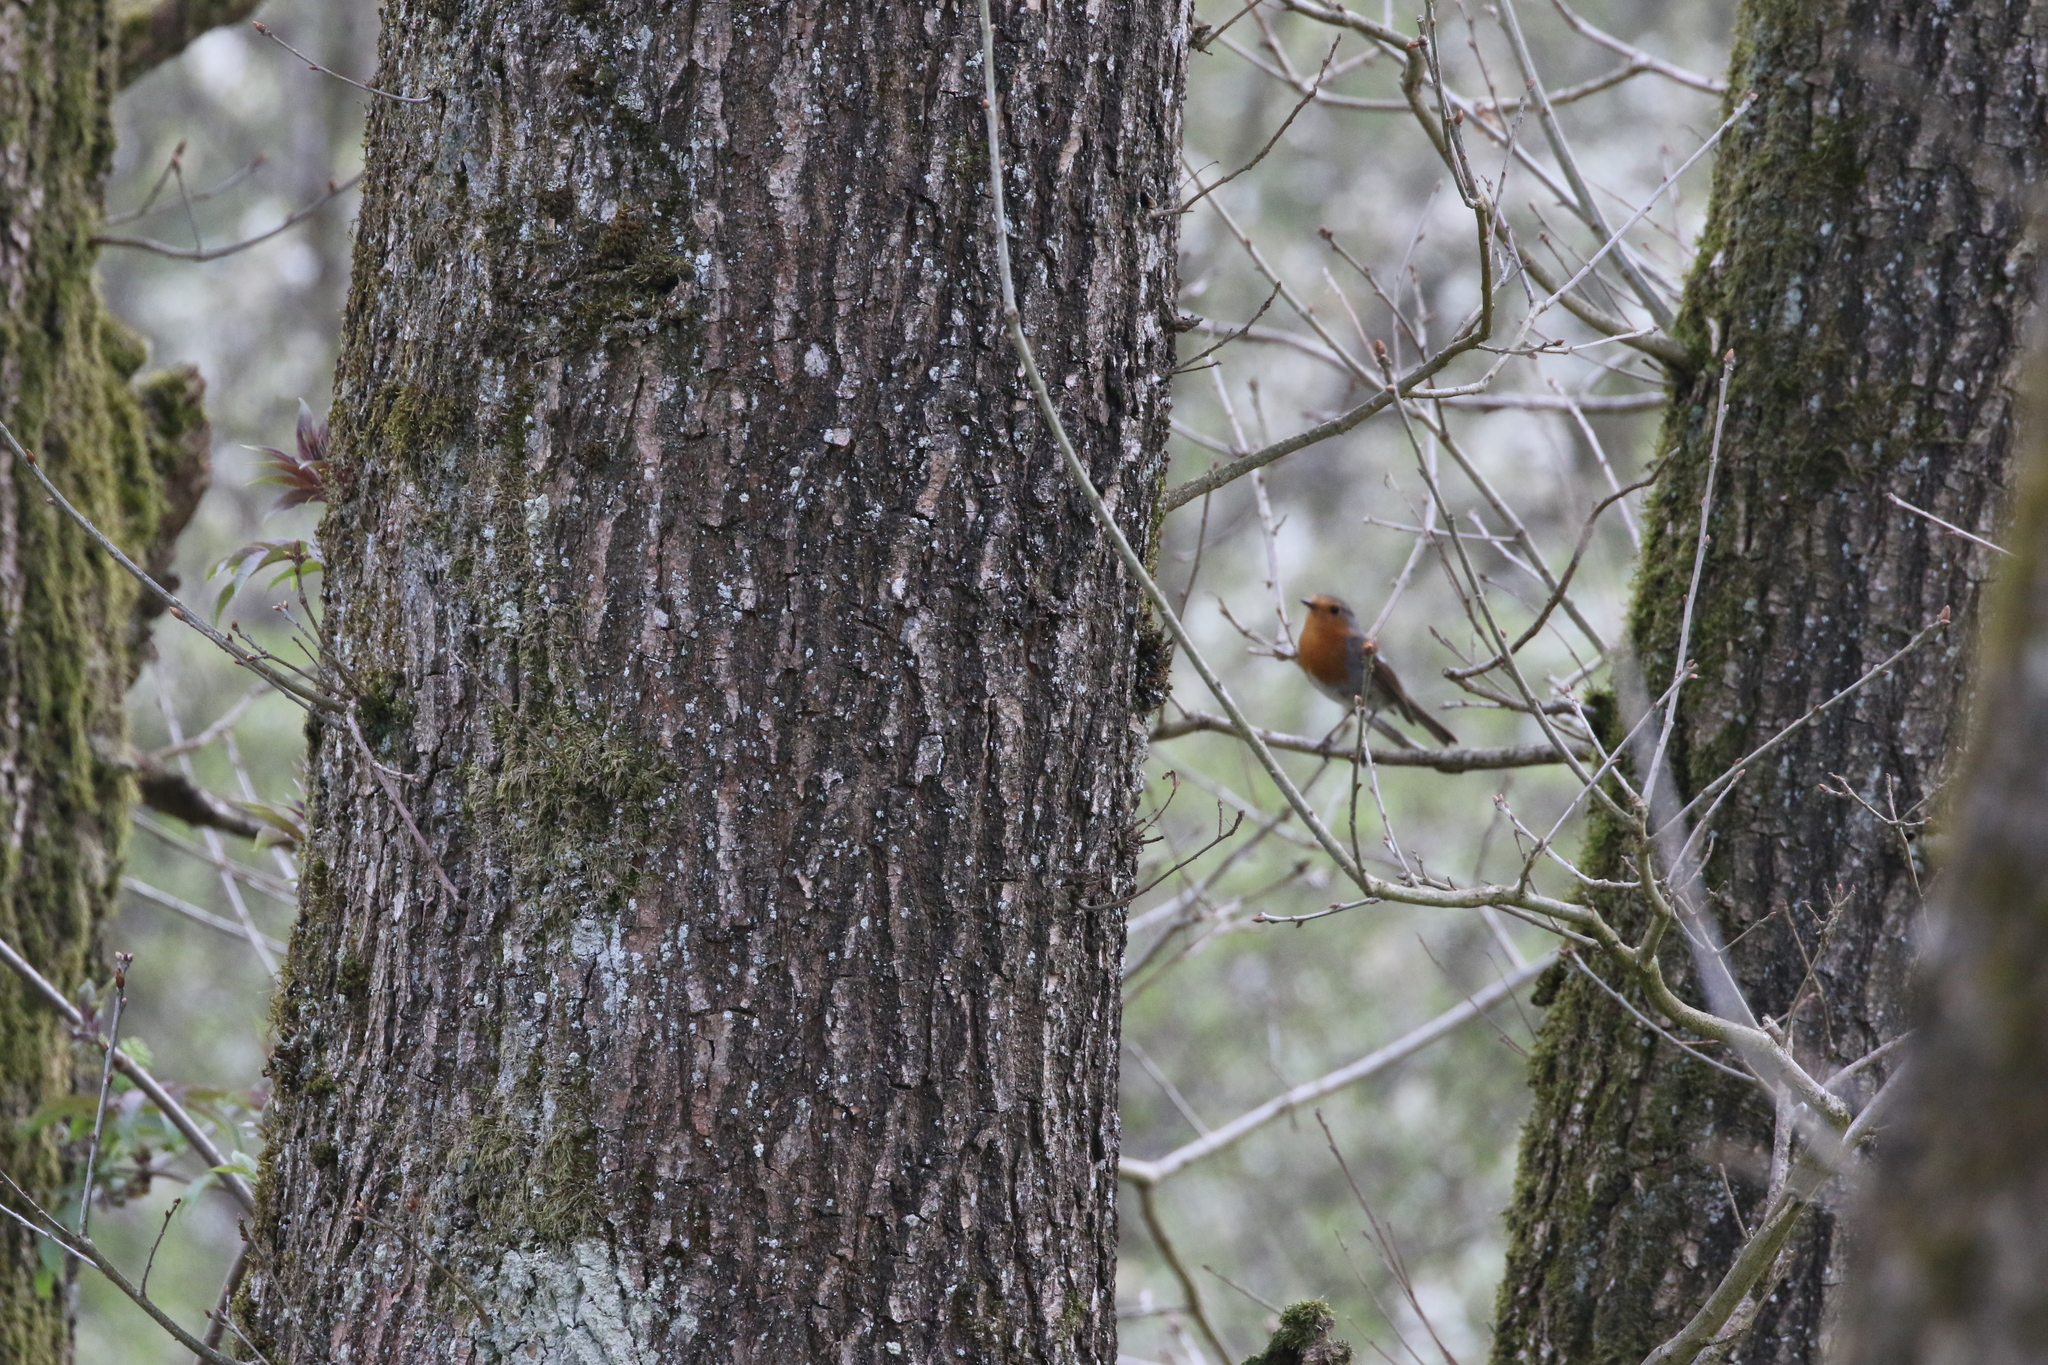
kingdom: Animalia
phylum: Chordata
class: Aves
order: Passeriformes
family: Muscicapidae
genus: Erithacus
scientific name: Erithacus rubecula
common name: European robin
